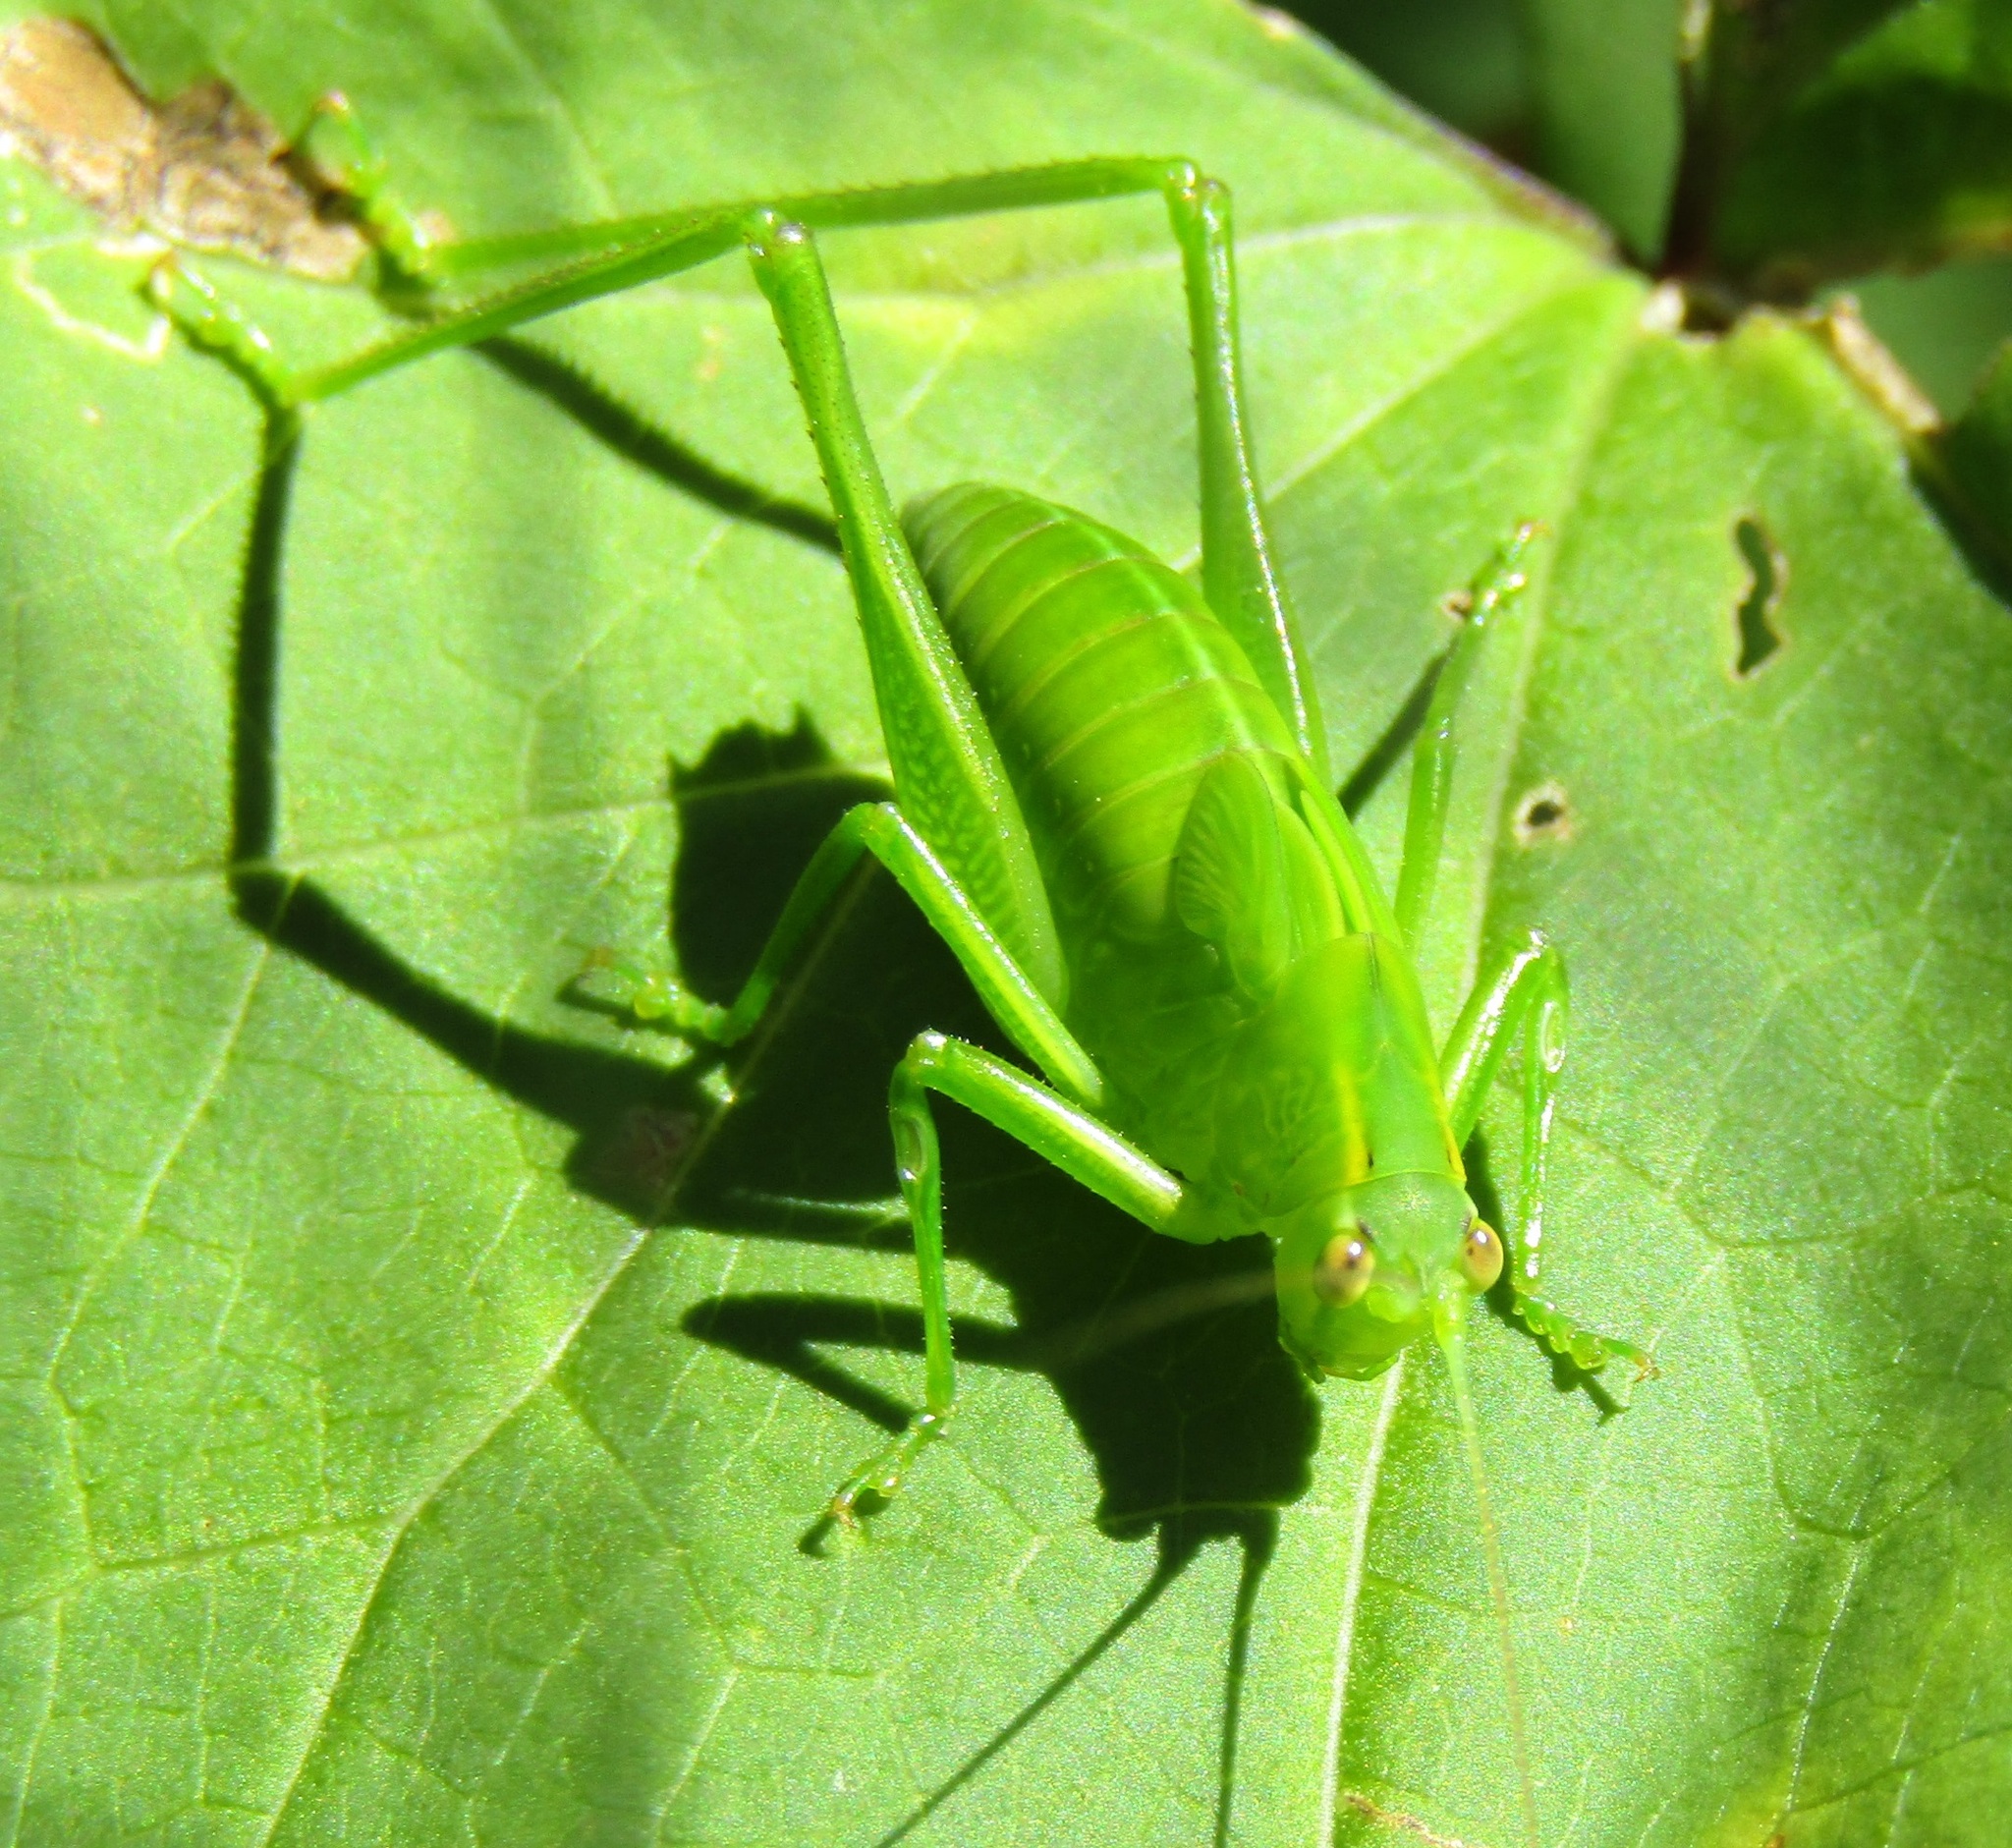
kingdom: Animalia
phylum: Arthropoda
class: Insecta
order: Orthoptera
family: Tettigoniidae
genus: Caedicia
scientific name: Caedicia simplex
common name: Common garden katydid
